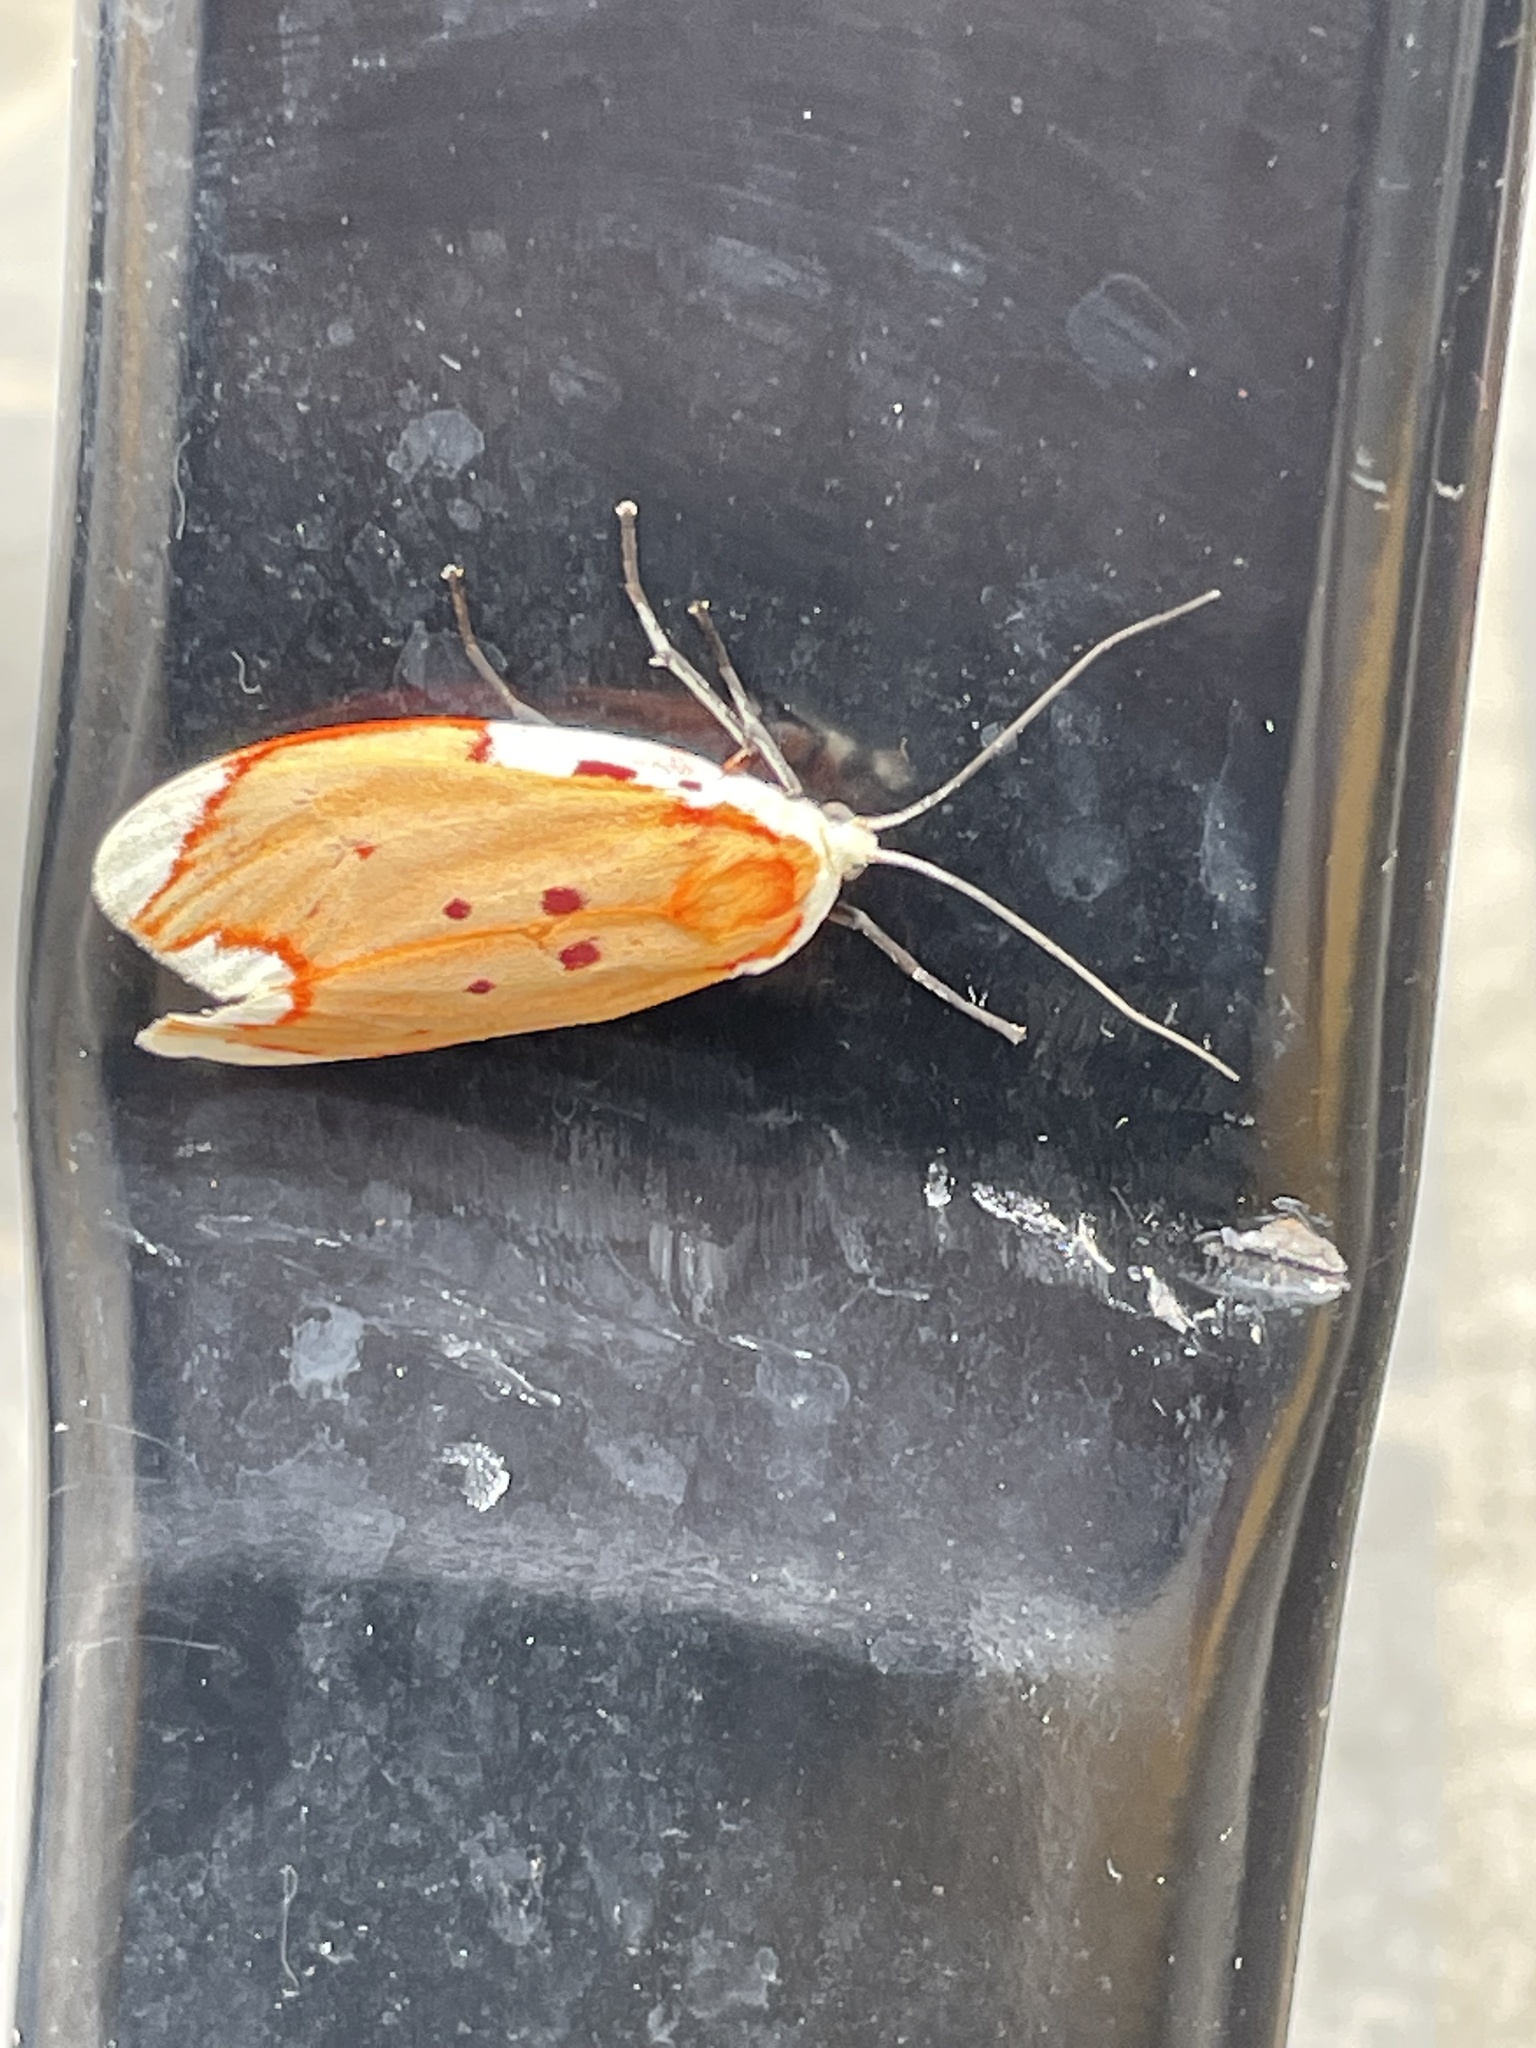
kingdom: Animalia
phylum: Arthropoda
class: Insecta
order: Lepidoptera
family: Lacturidae
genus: Lactura
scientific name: Lactura sapotearum
